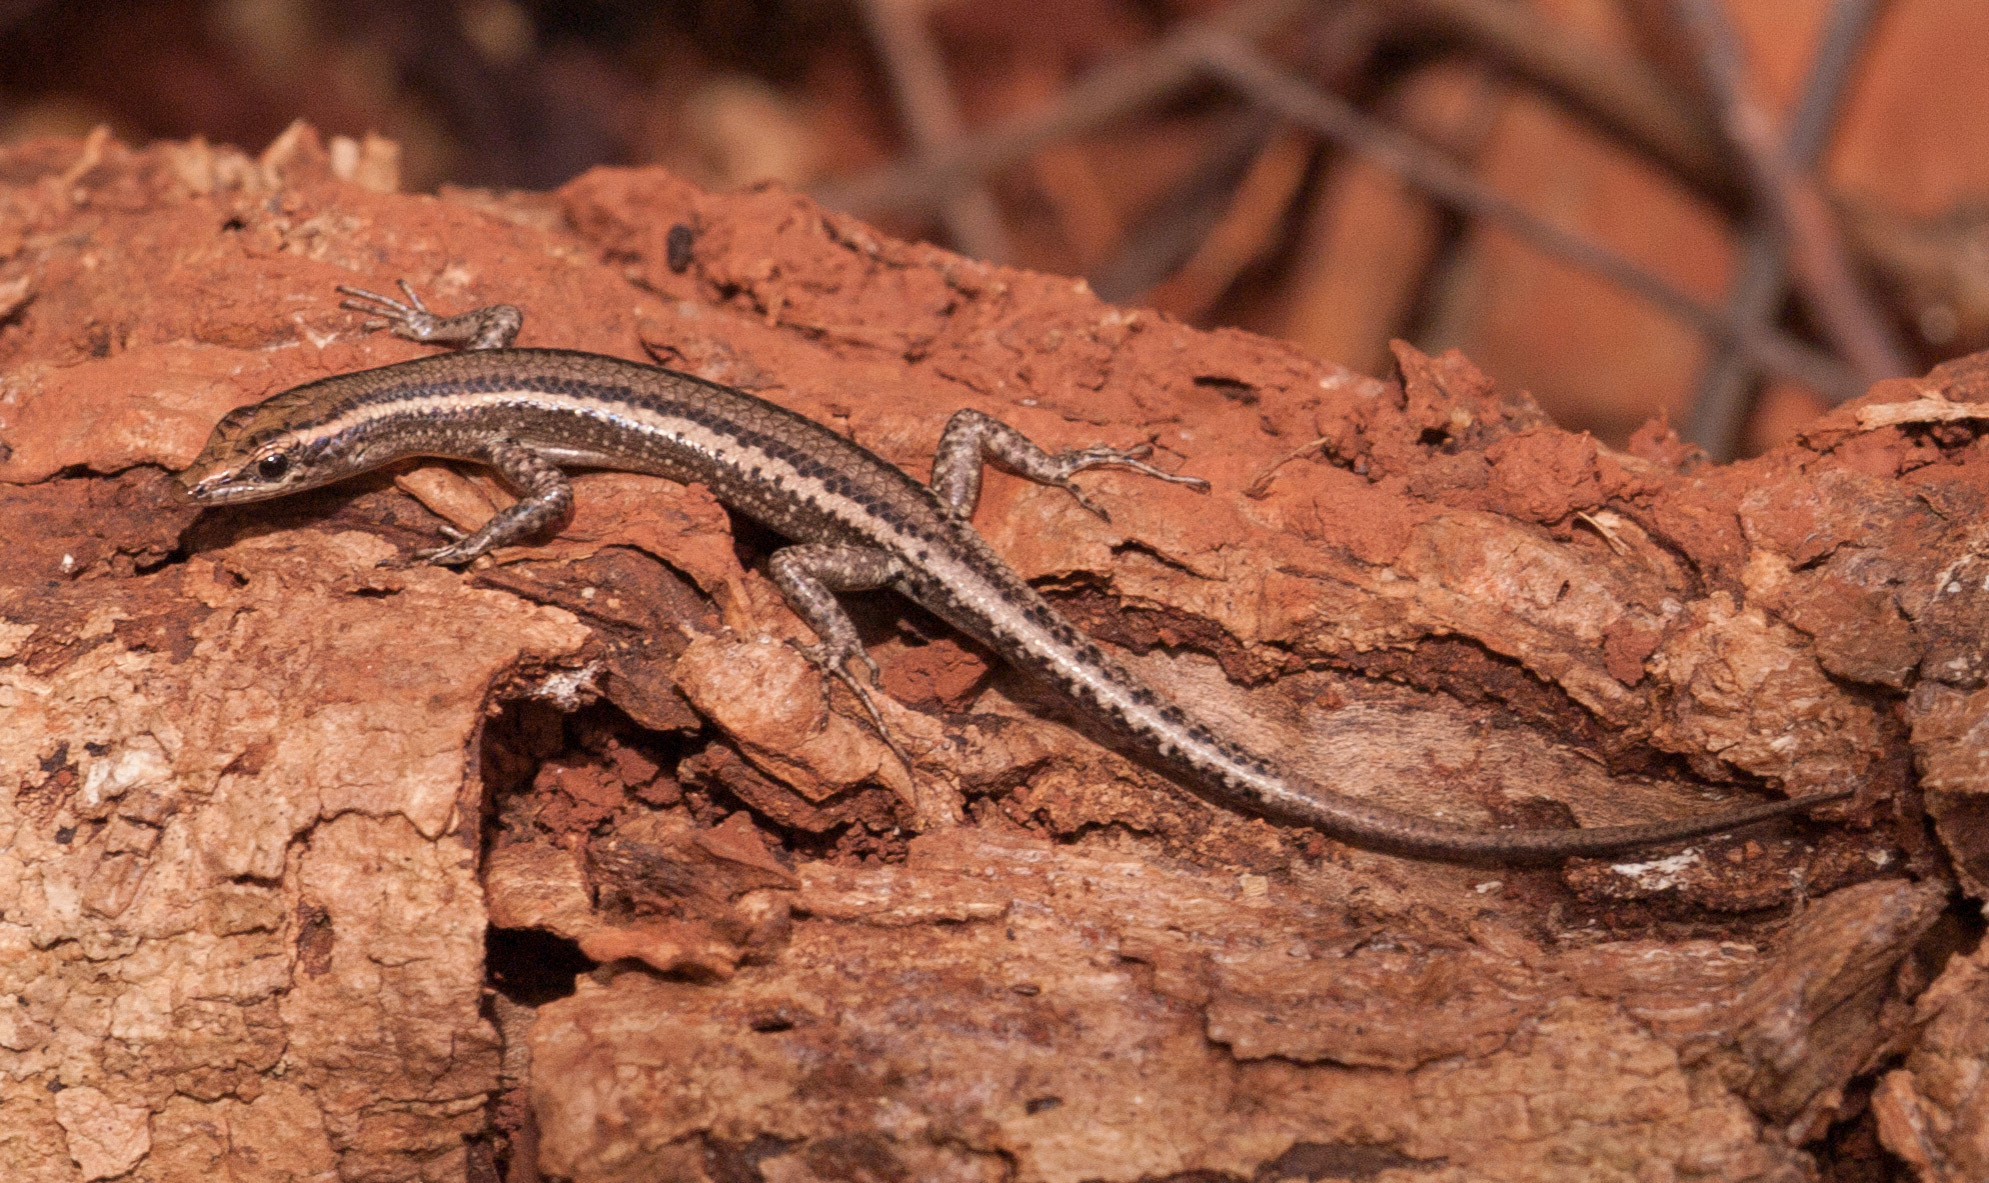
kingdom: Animalia
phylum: Chordata
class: Squamata
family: Scincidae
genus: Cryptoblepharus
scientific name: Cryptoblepharus virgatus
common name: Cream-striped shinning-skink
